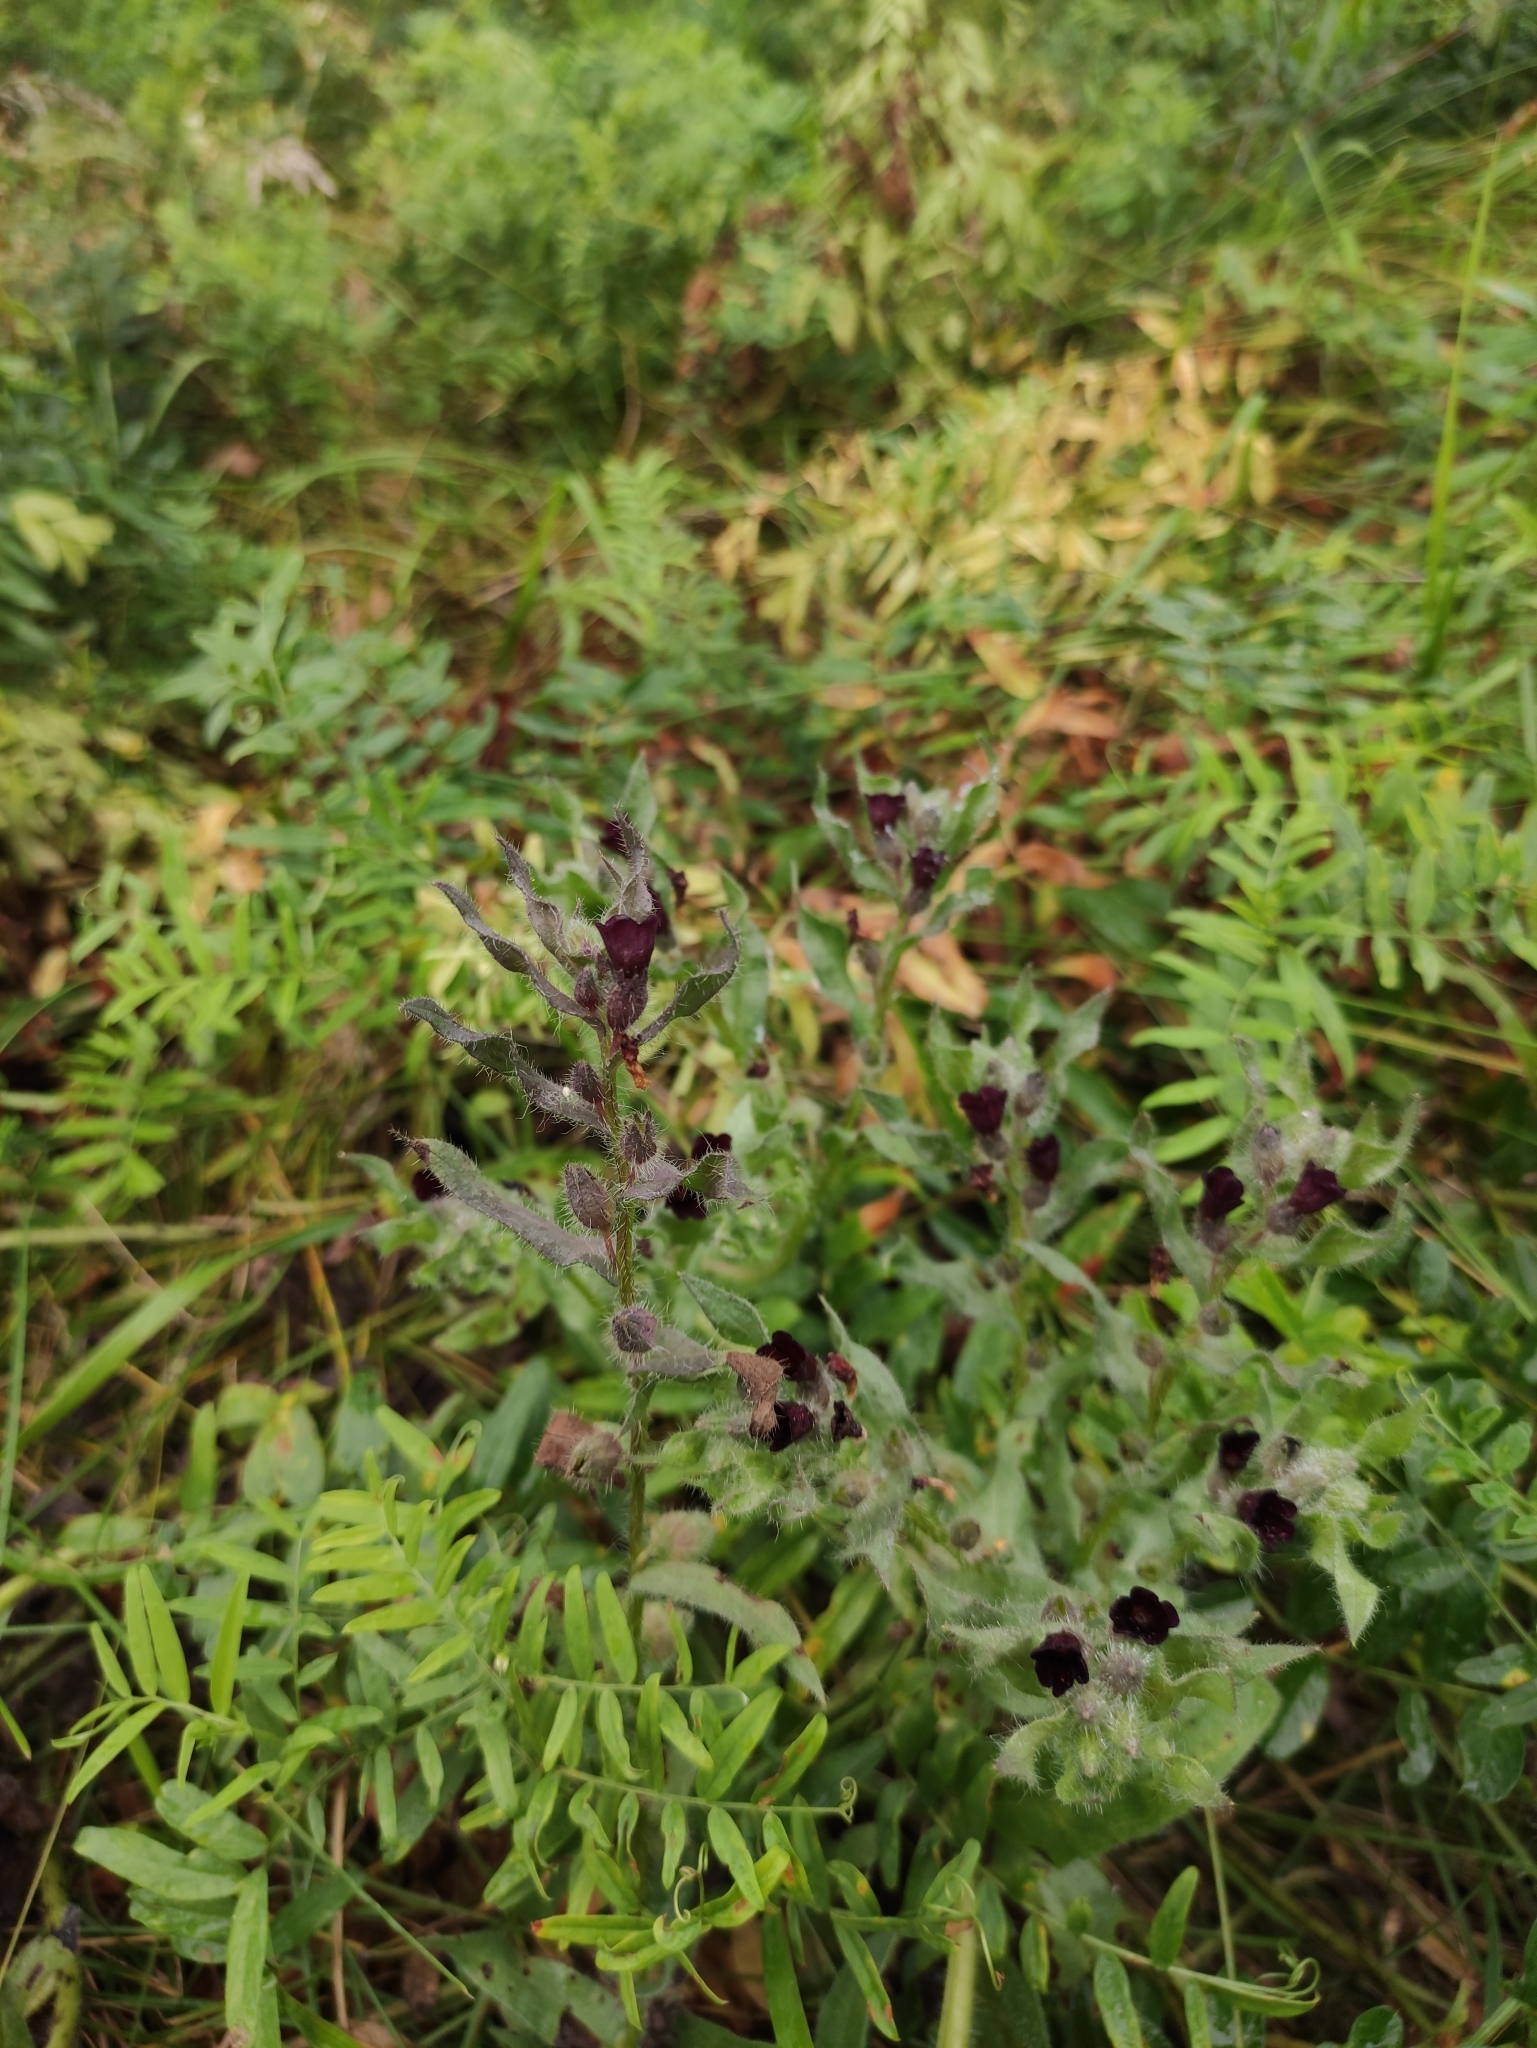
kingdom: Plantae
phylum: Tracheophyta
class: Magnoliopsida
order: Boraginales
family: Boraginaceae
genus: Nonea
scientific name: Nonea pulla
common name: Brown nonea
